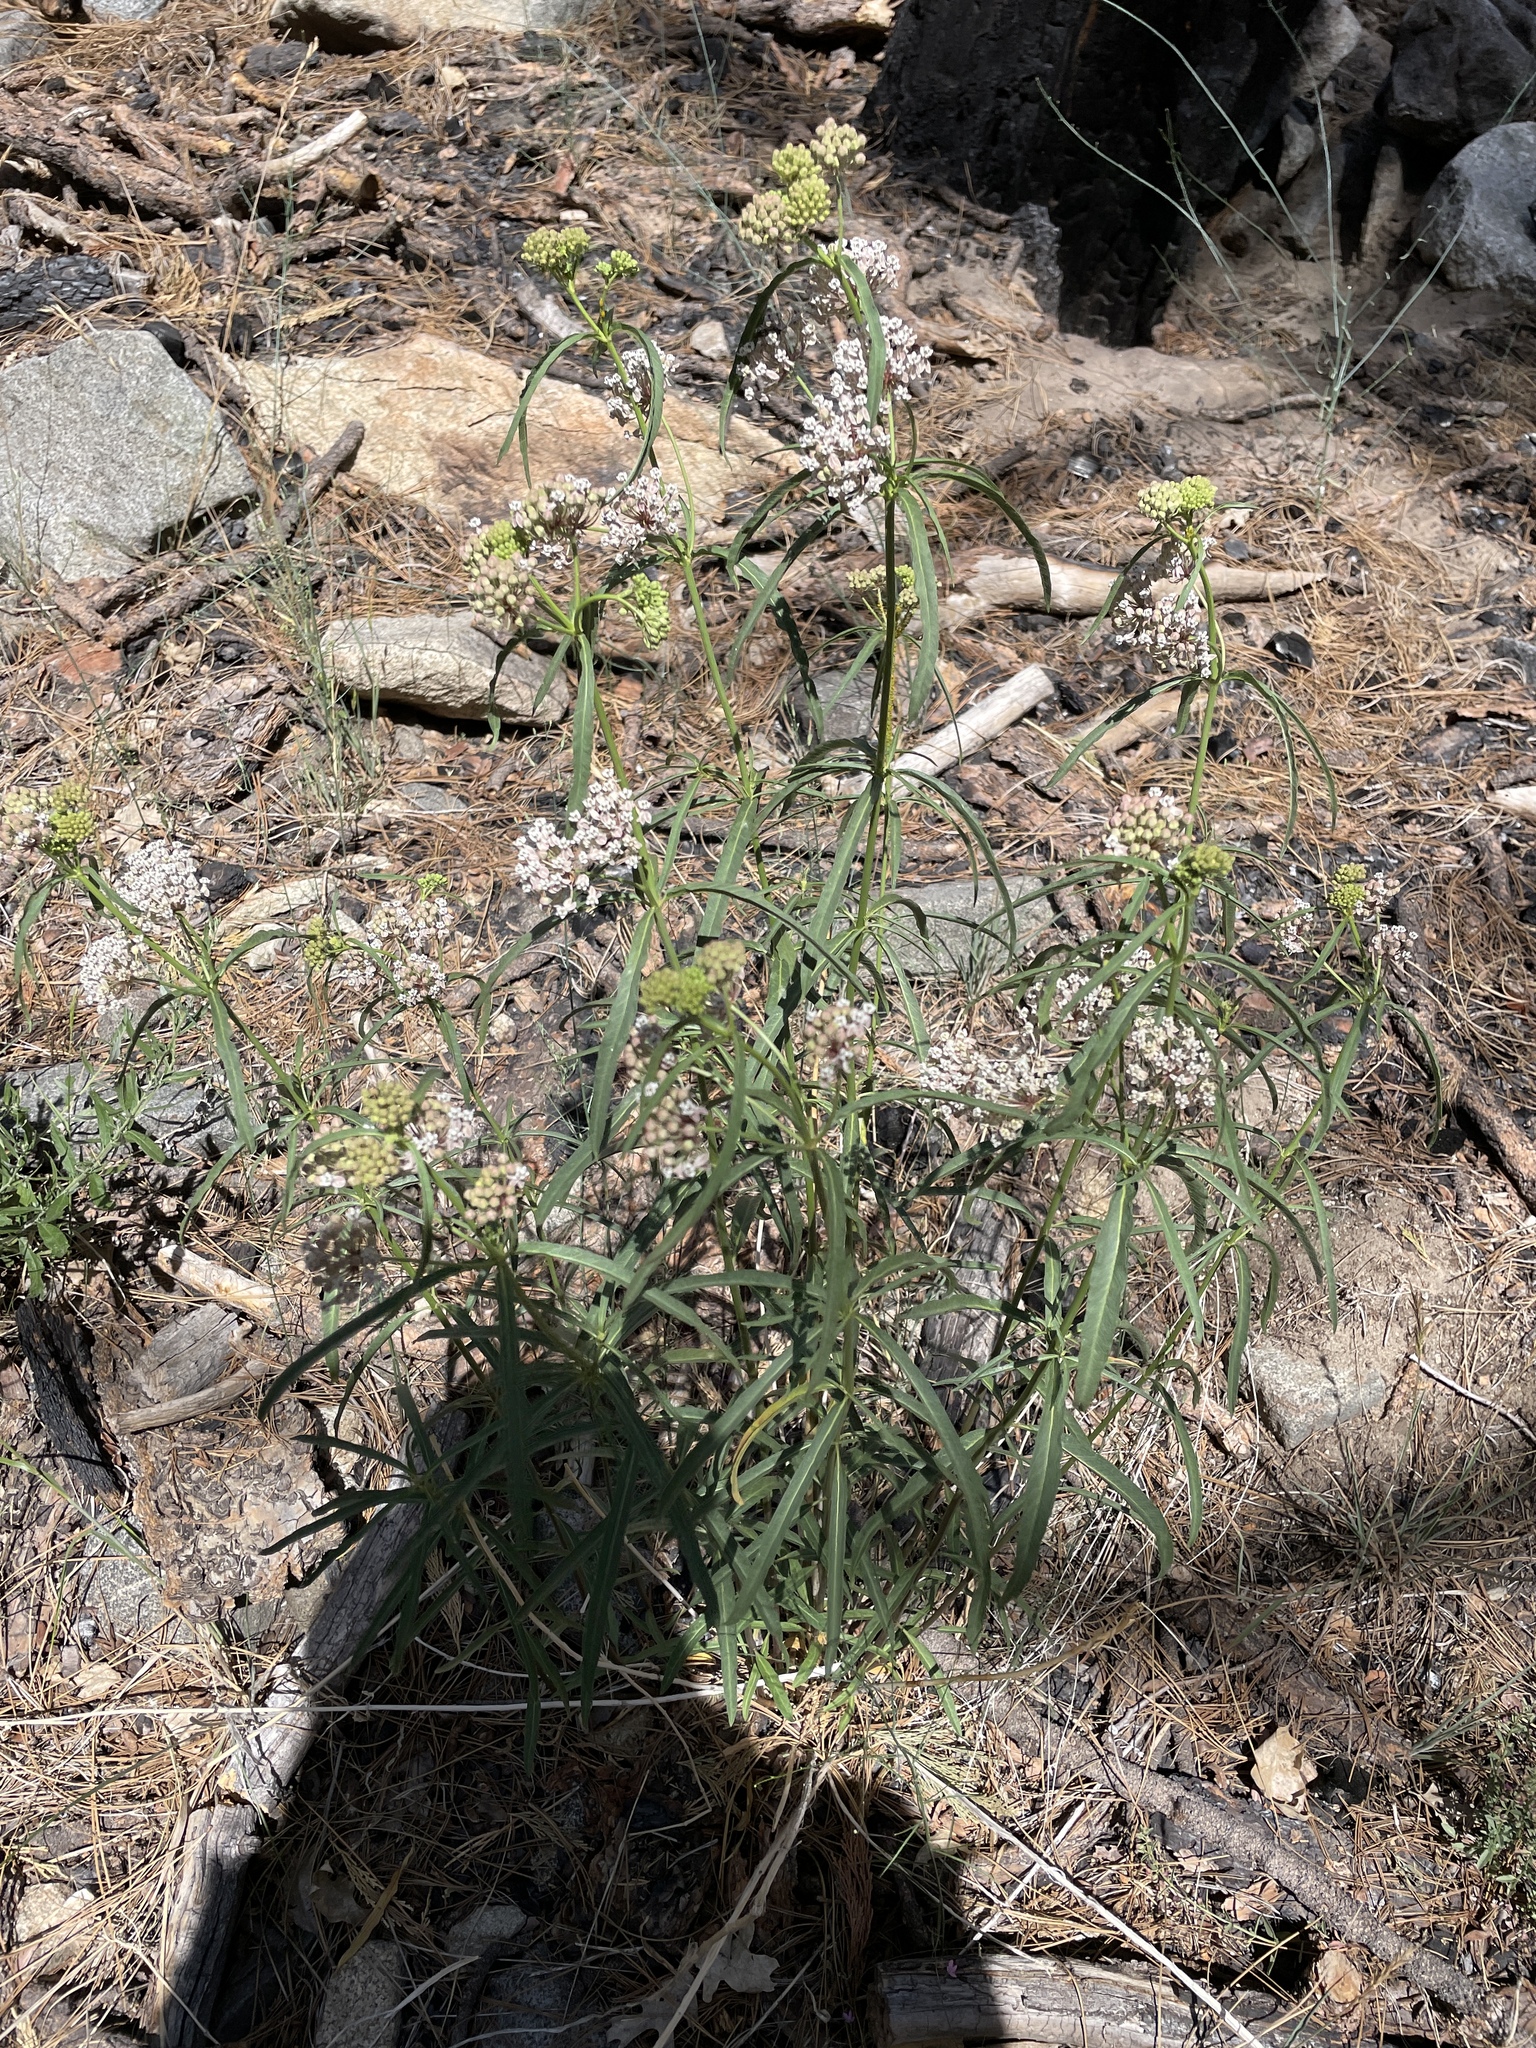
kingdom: Plantae
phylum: Tracheophyta
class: Magnoliopsida
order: Gentianales
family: Apocynaceae
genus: Asclepias
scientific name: Asclepias fascicularis
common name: Mexican milkweed
